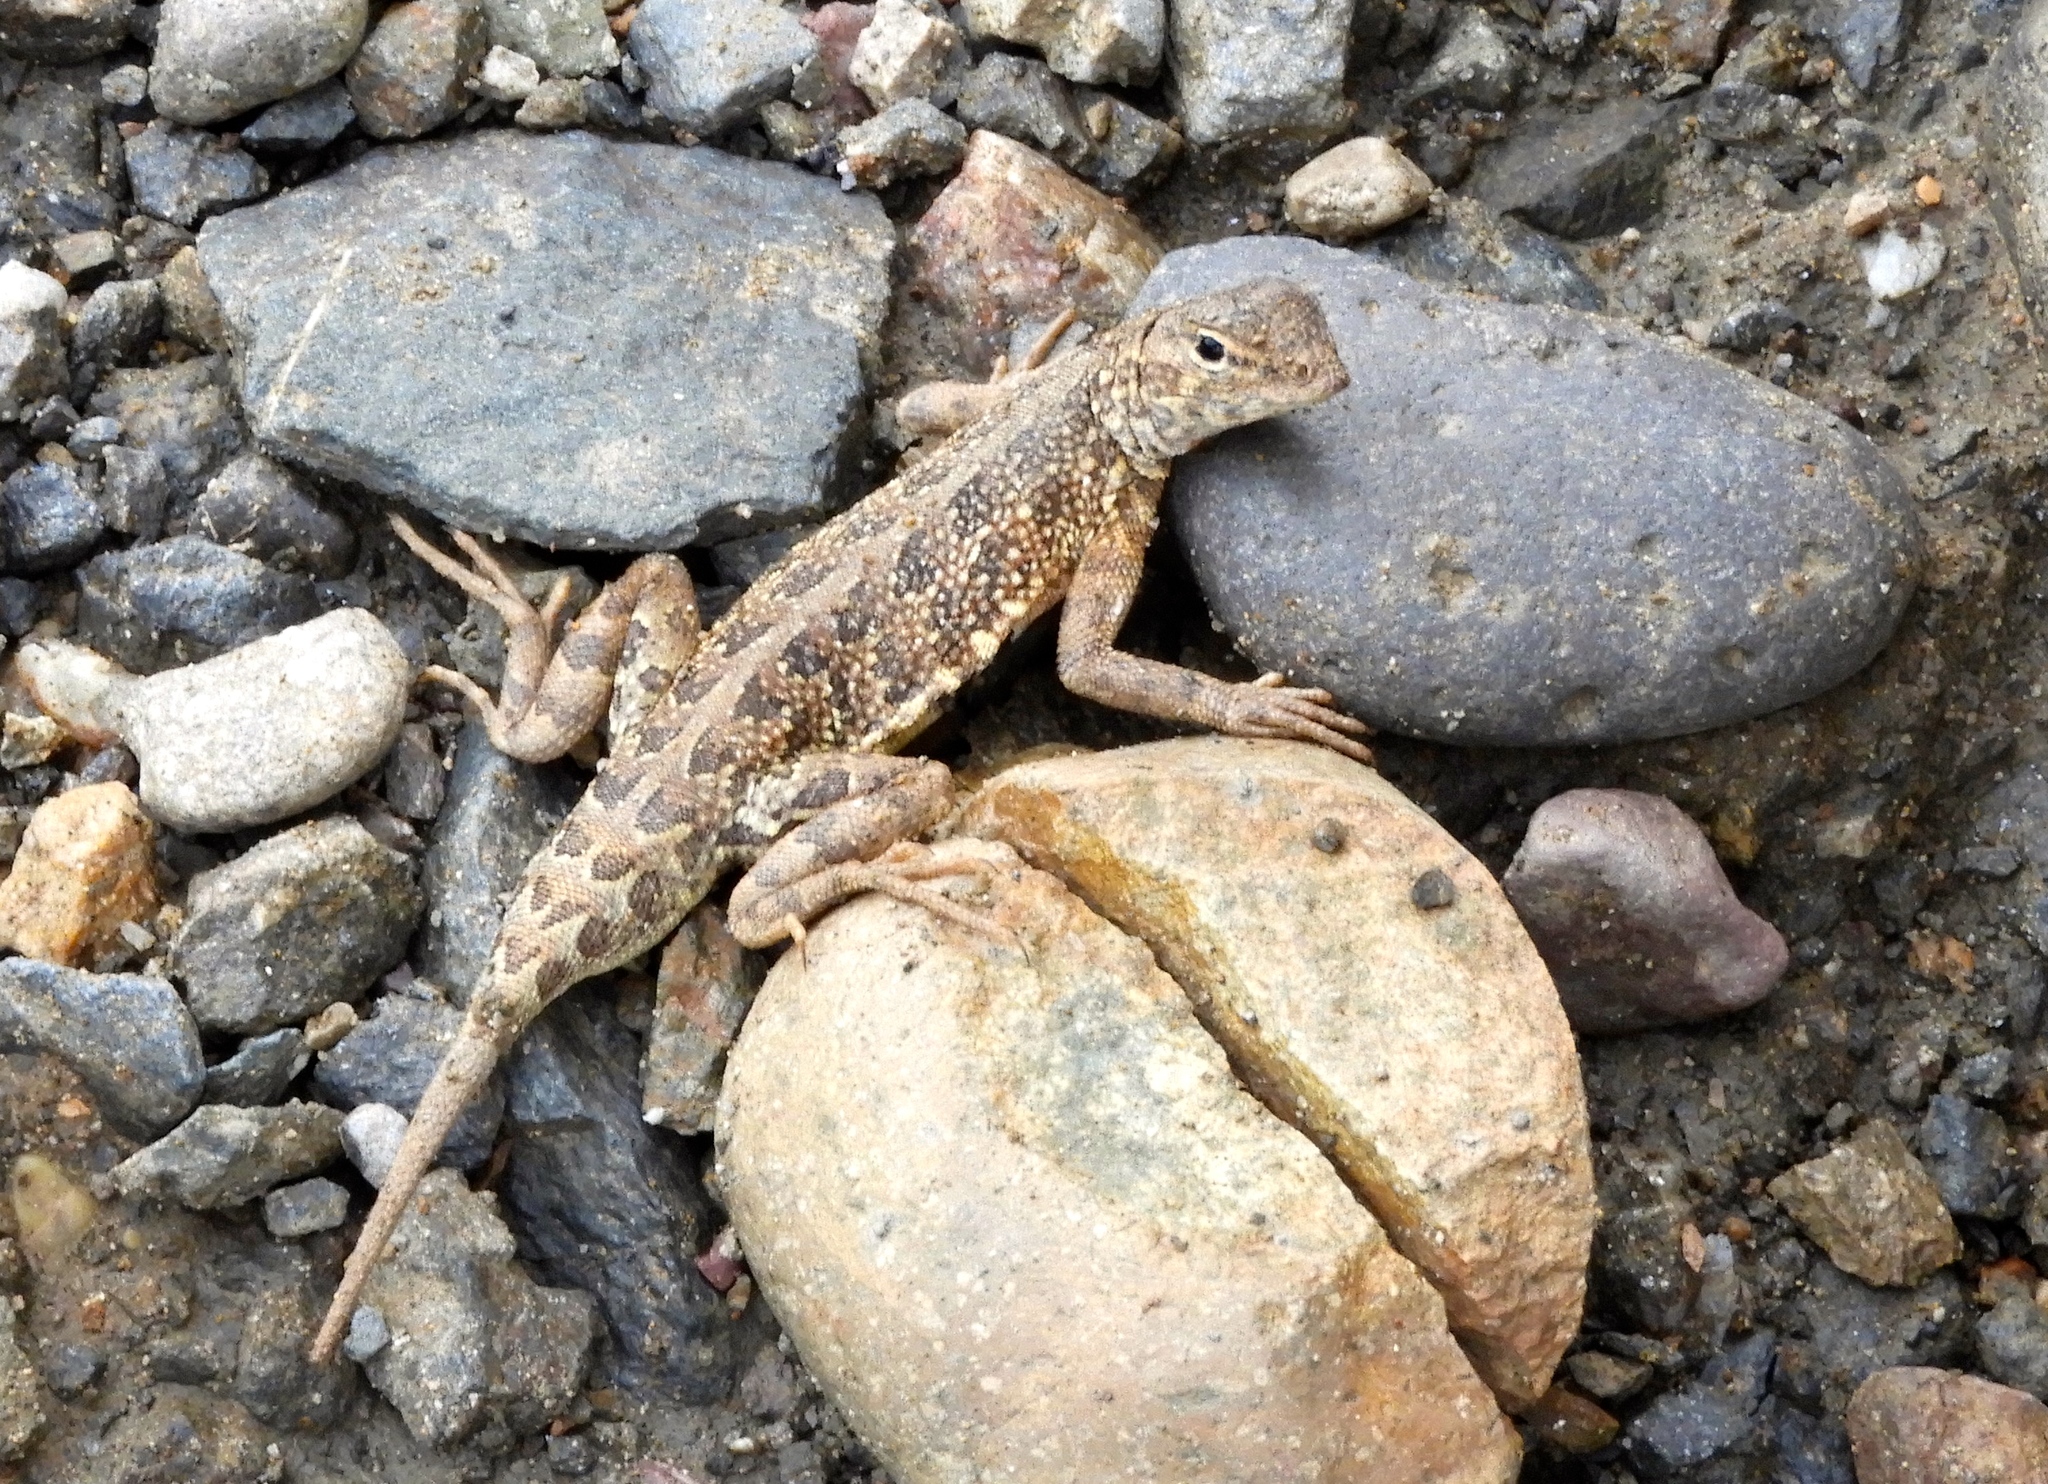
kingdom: Animalia
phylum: Chordata
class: Squamata
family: Phrynosomatidae
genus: Holbrookia
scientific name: Holbrookia elegans
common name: Elegant earless lizard
